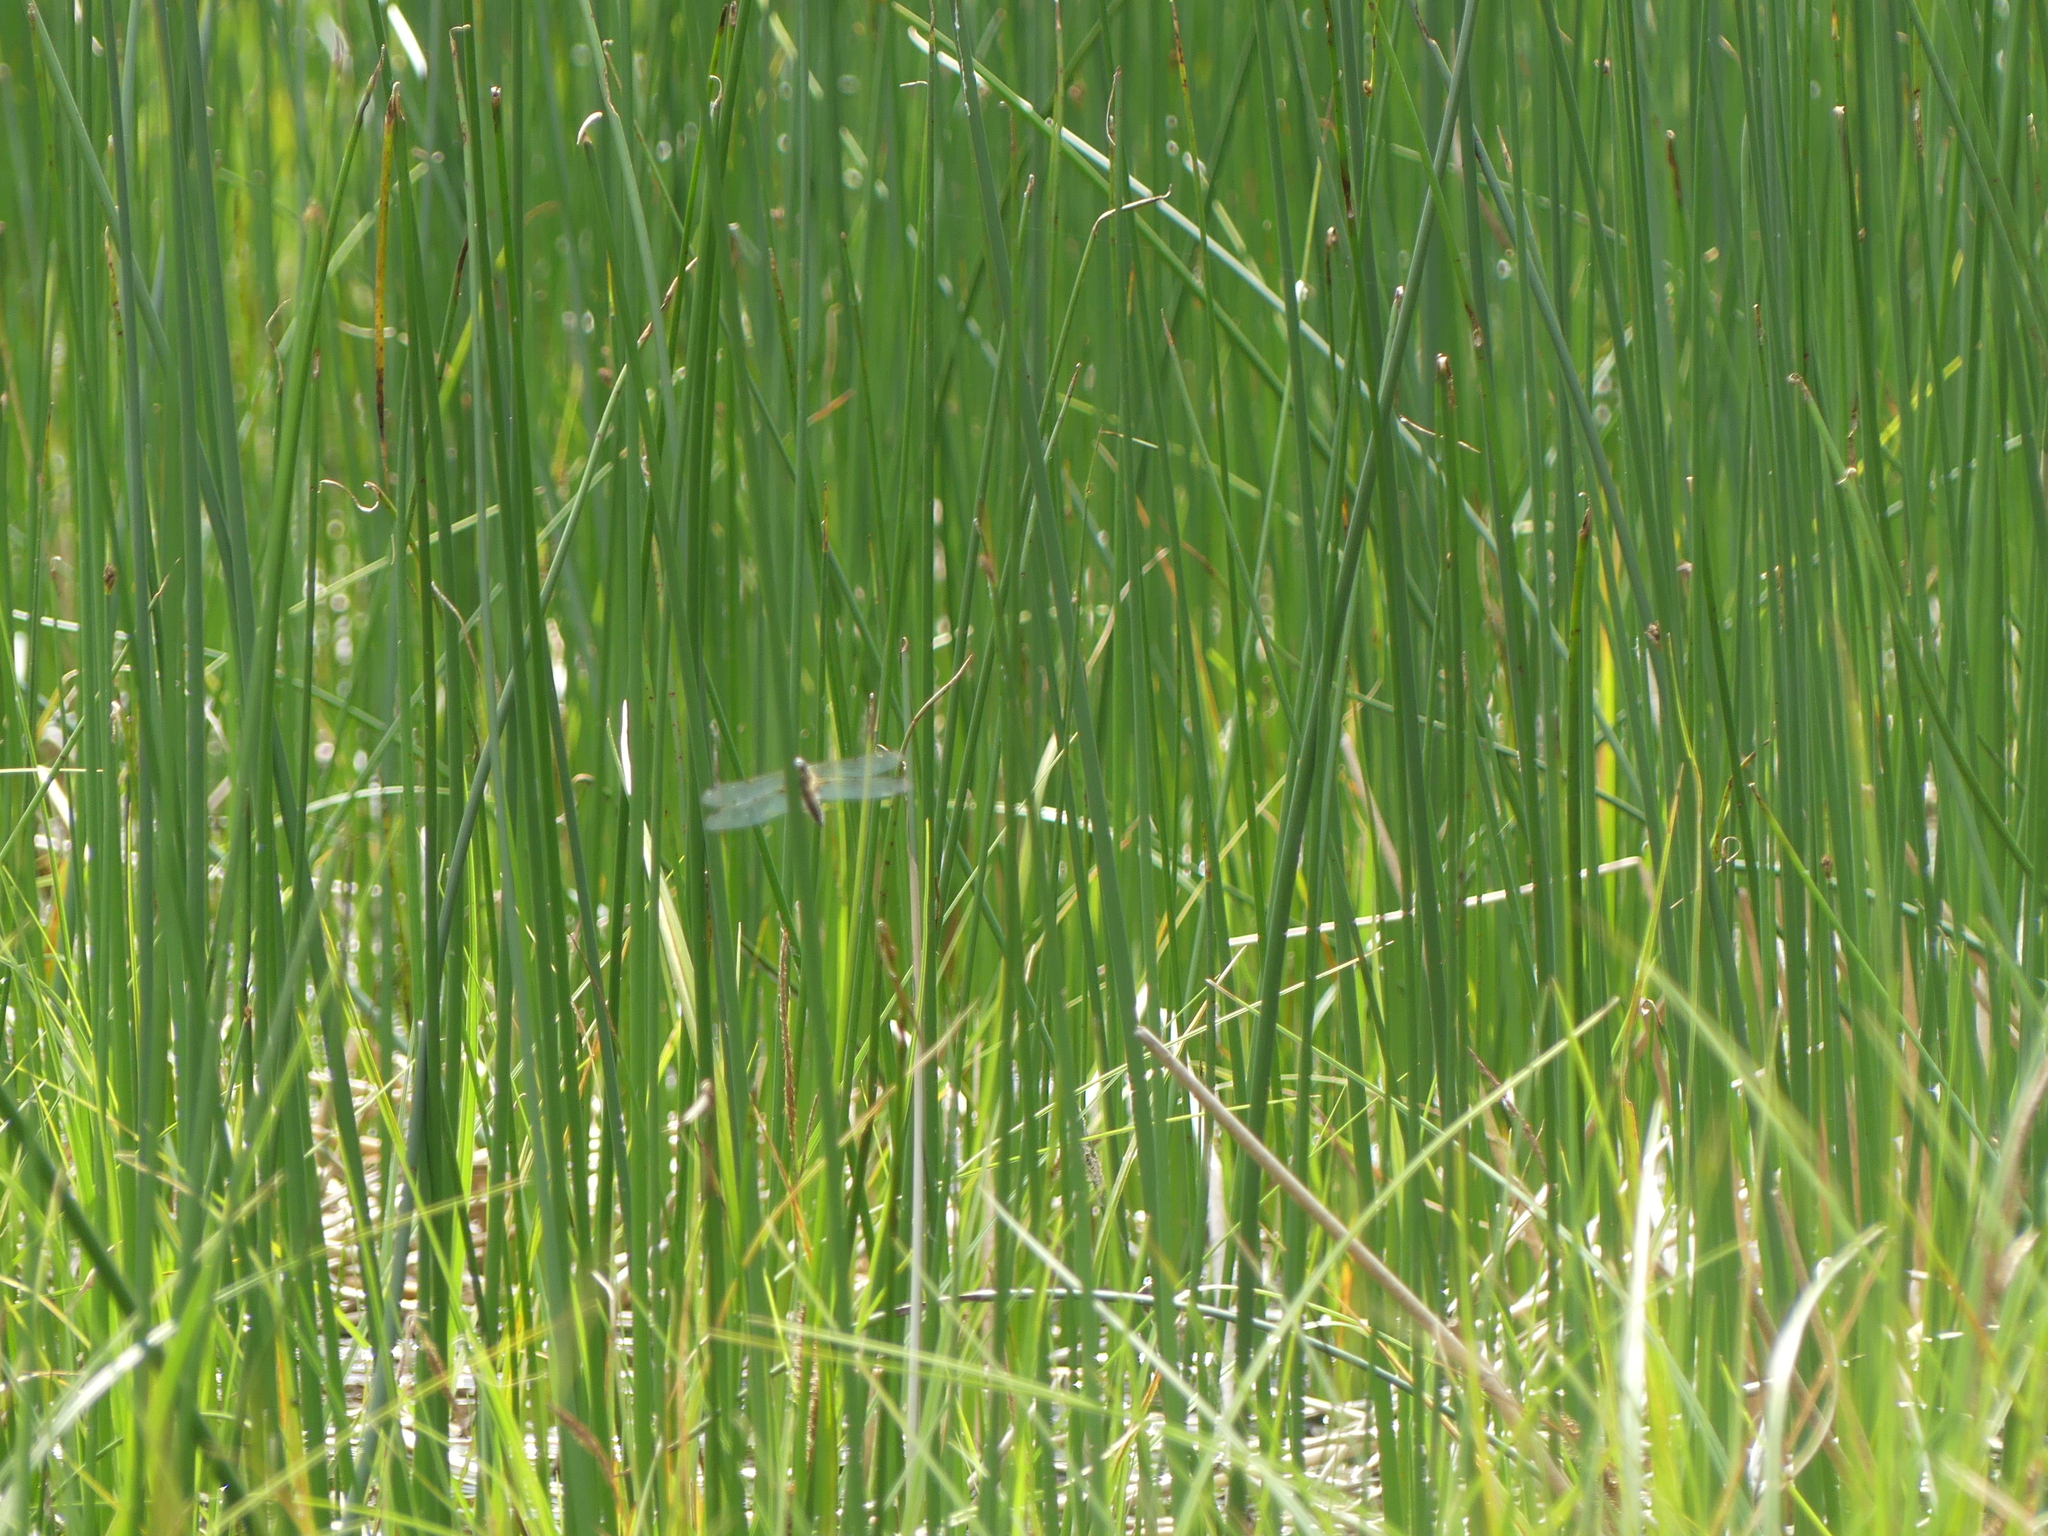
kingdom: Animalia
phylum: Arthropoda
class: Insecta
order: Odonata
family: Libellulidae
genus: Libellula
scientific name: Libellula quadrimaculata
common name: Four-spotted chaser
